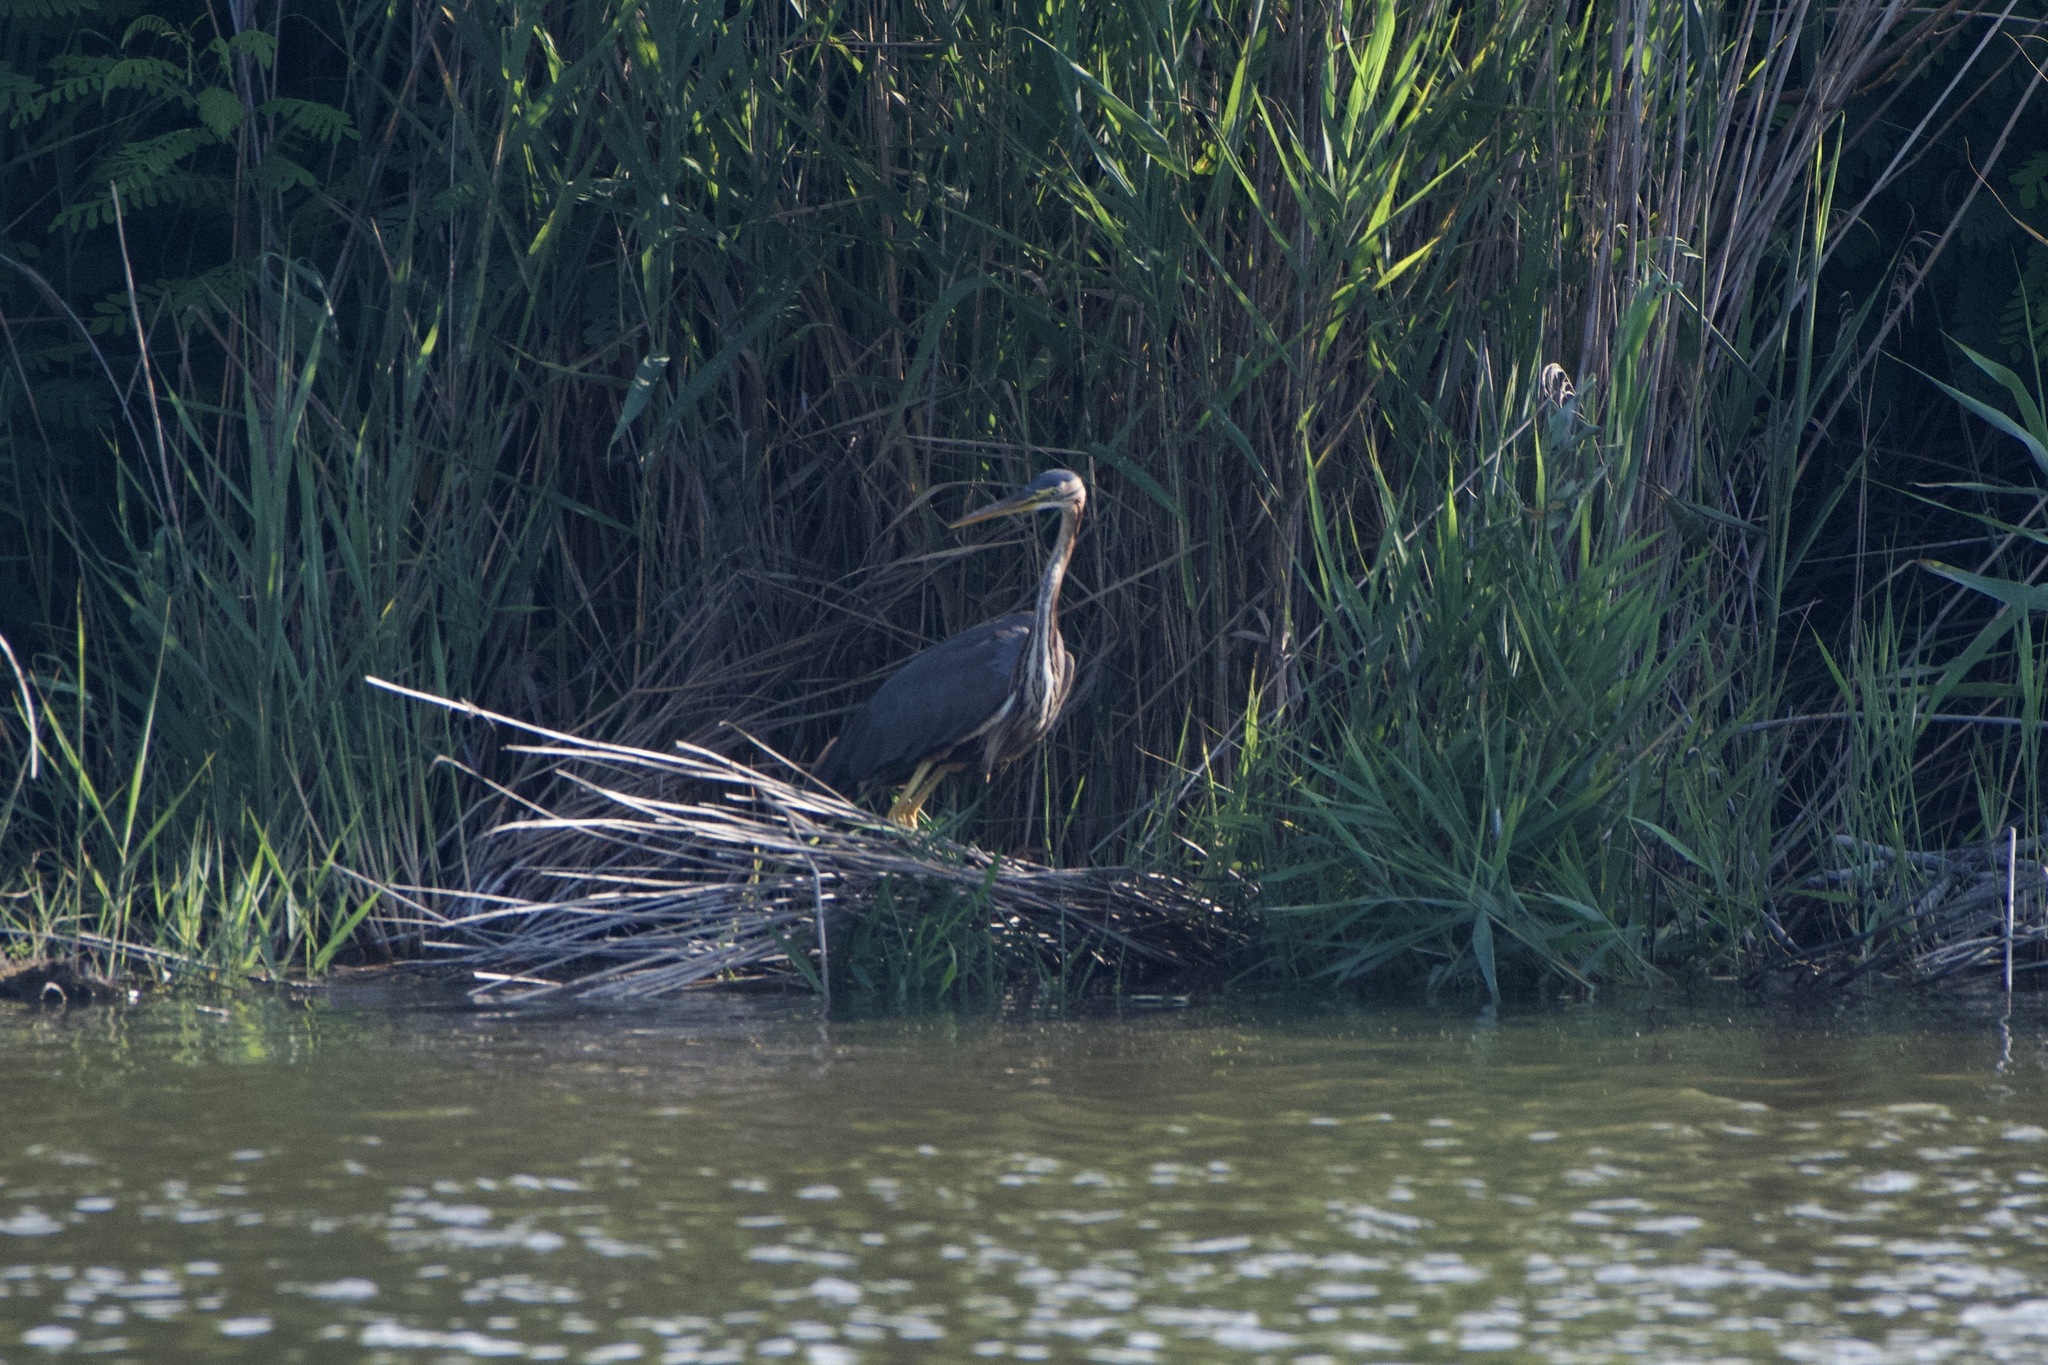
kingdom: Animalia
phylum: Chordata
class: Aves
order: Pelecaniformes
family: Ardeidae
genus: Ardea
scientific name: Ardea purpurea
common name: Purple heron
